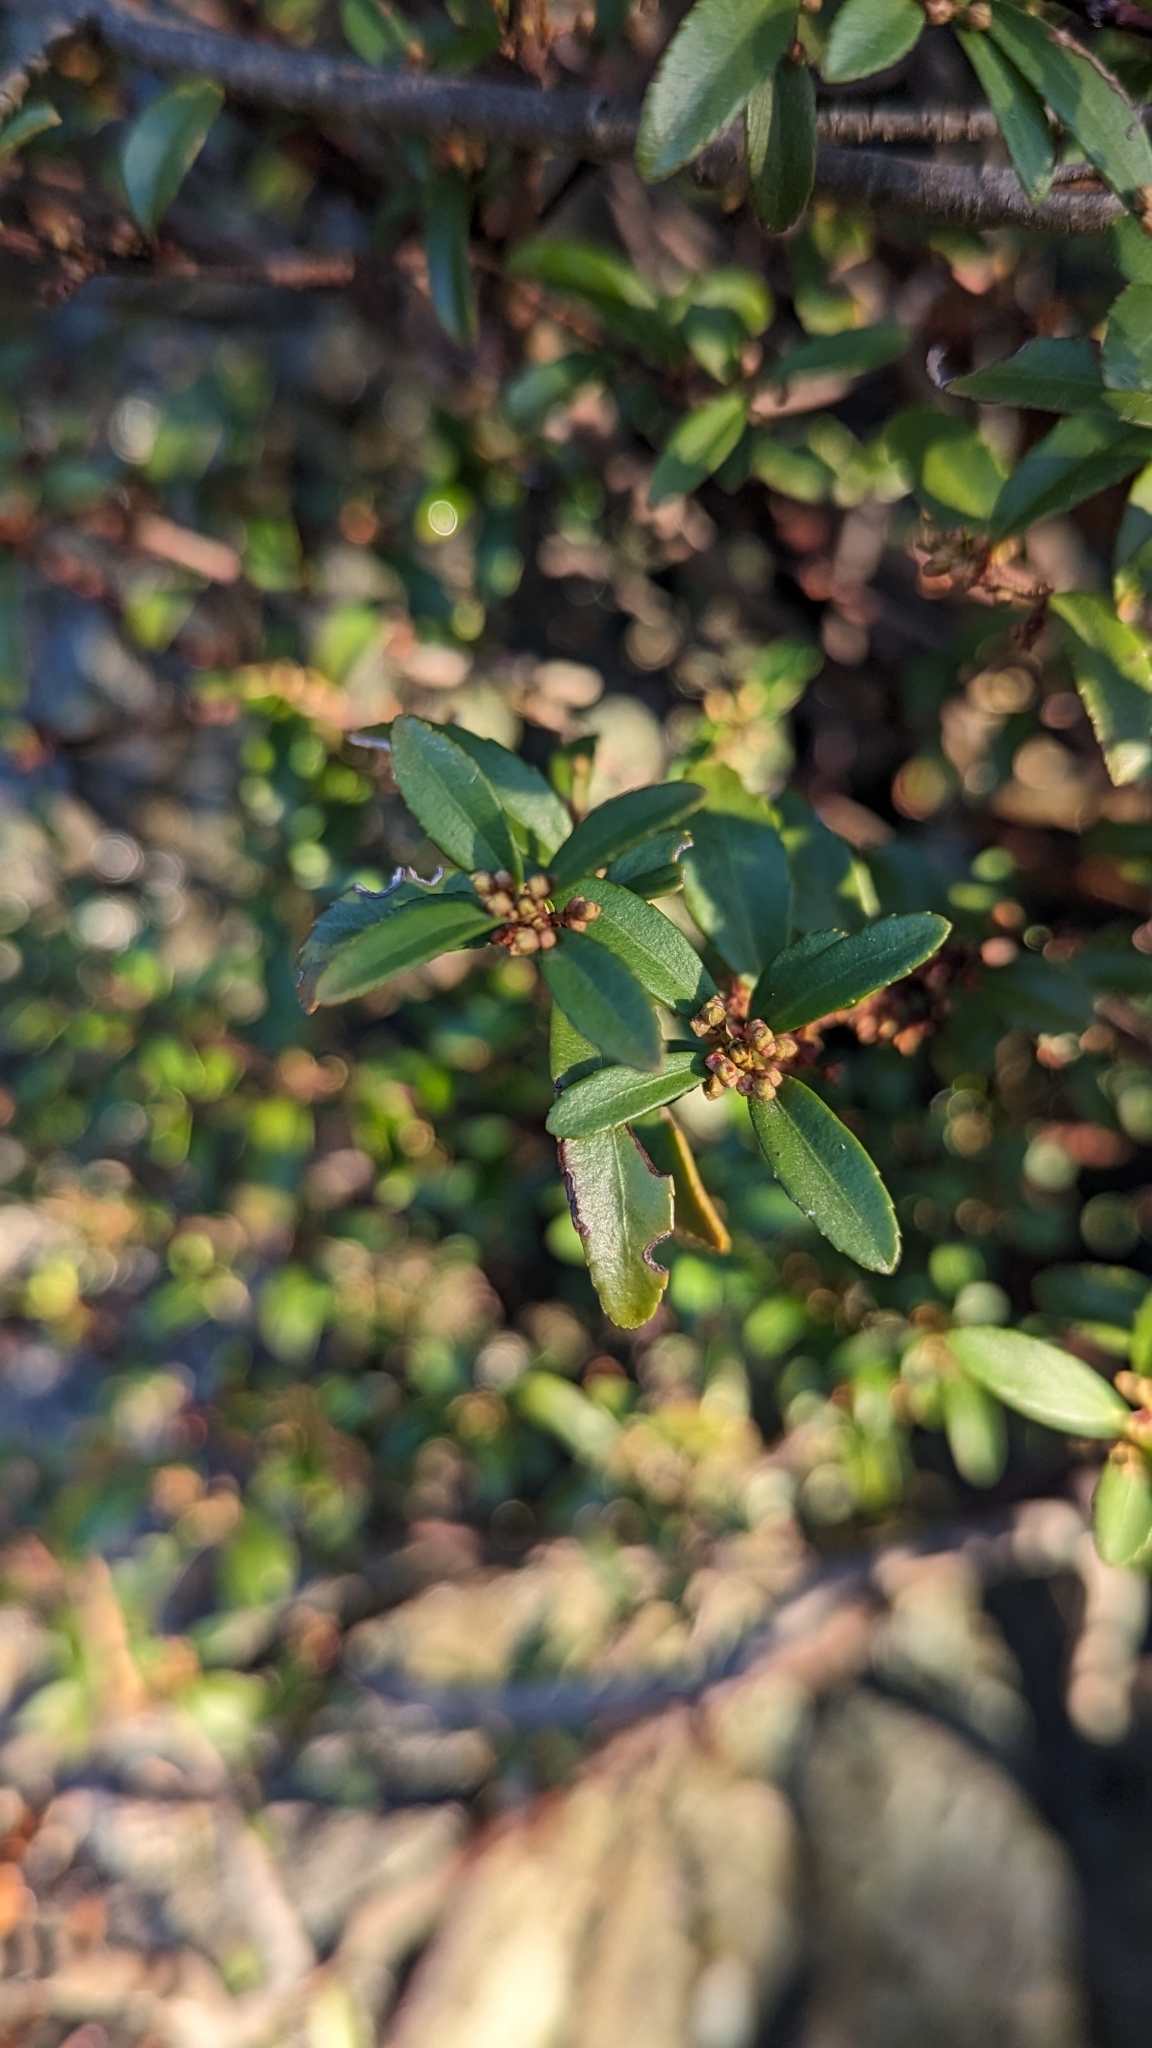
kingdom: Plantae
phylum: Tracheophyta
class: Magnoliopsida
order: Celastrales
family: Celastraceae
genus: Paxistima
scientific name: Paxistima myrsinites
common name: Mountain-lover
